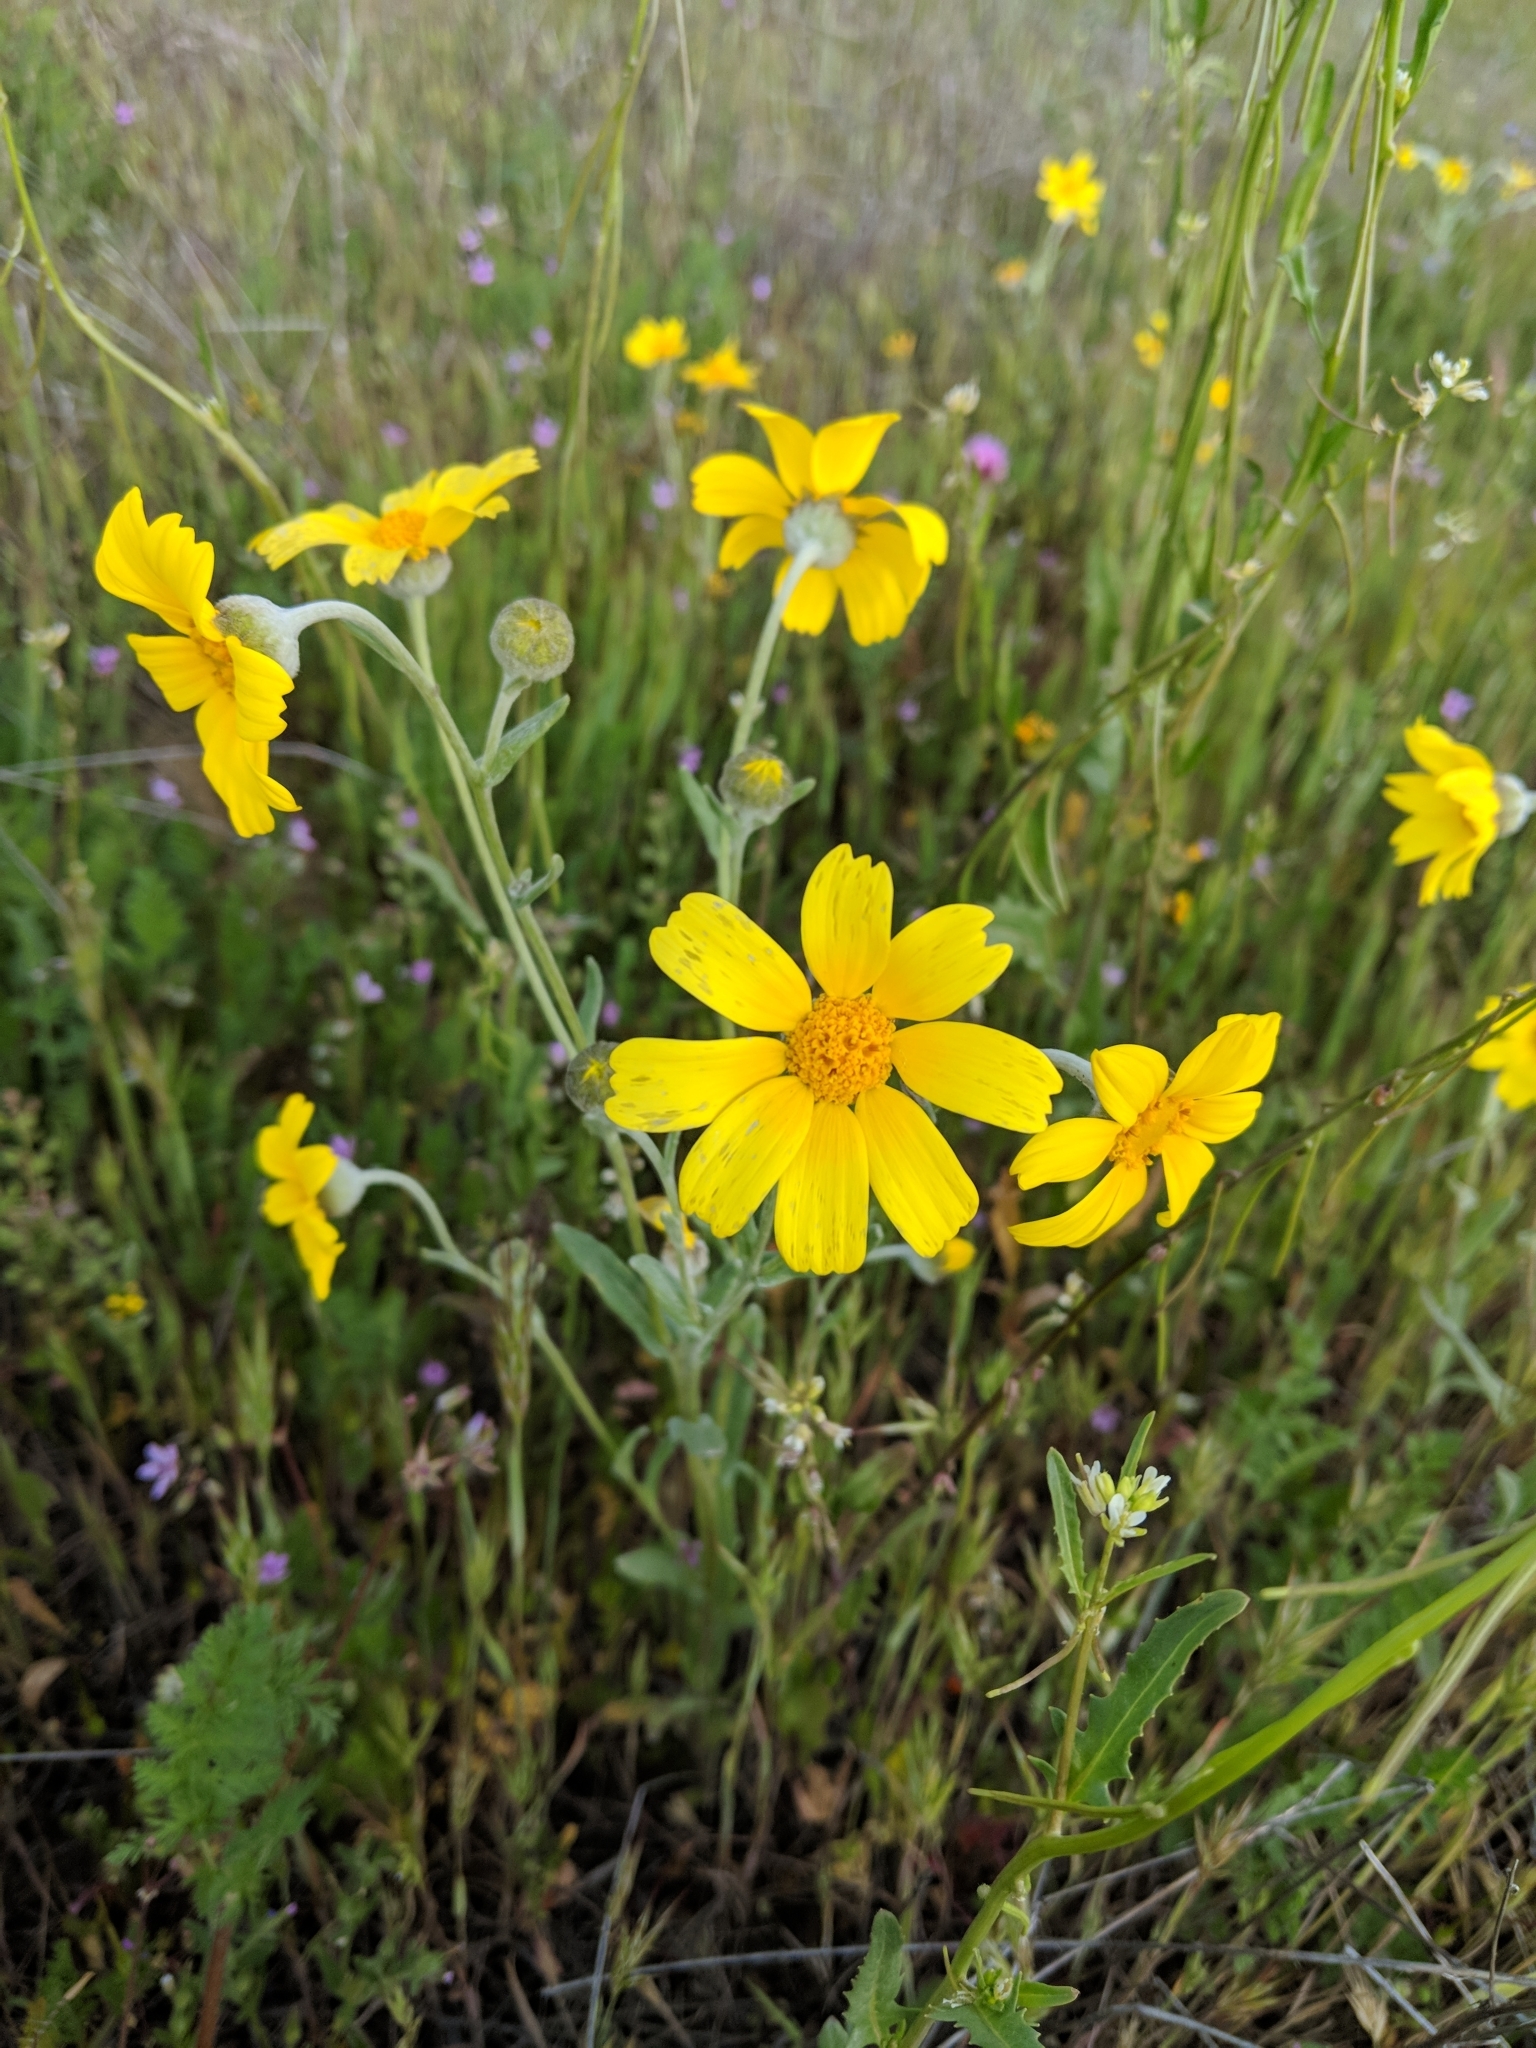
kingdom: Plantae
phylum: Tracheophyta
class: Magnoliopsida
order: Asterales
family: Asteraceae
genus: Monolopia
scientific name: Monolopia lanceolata
